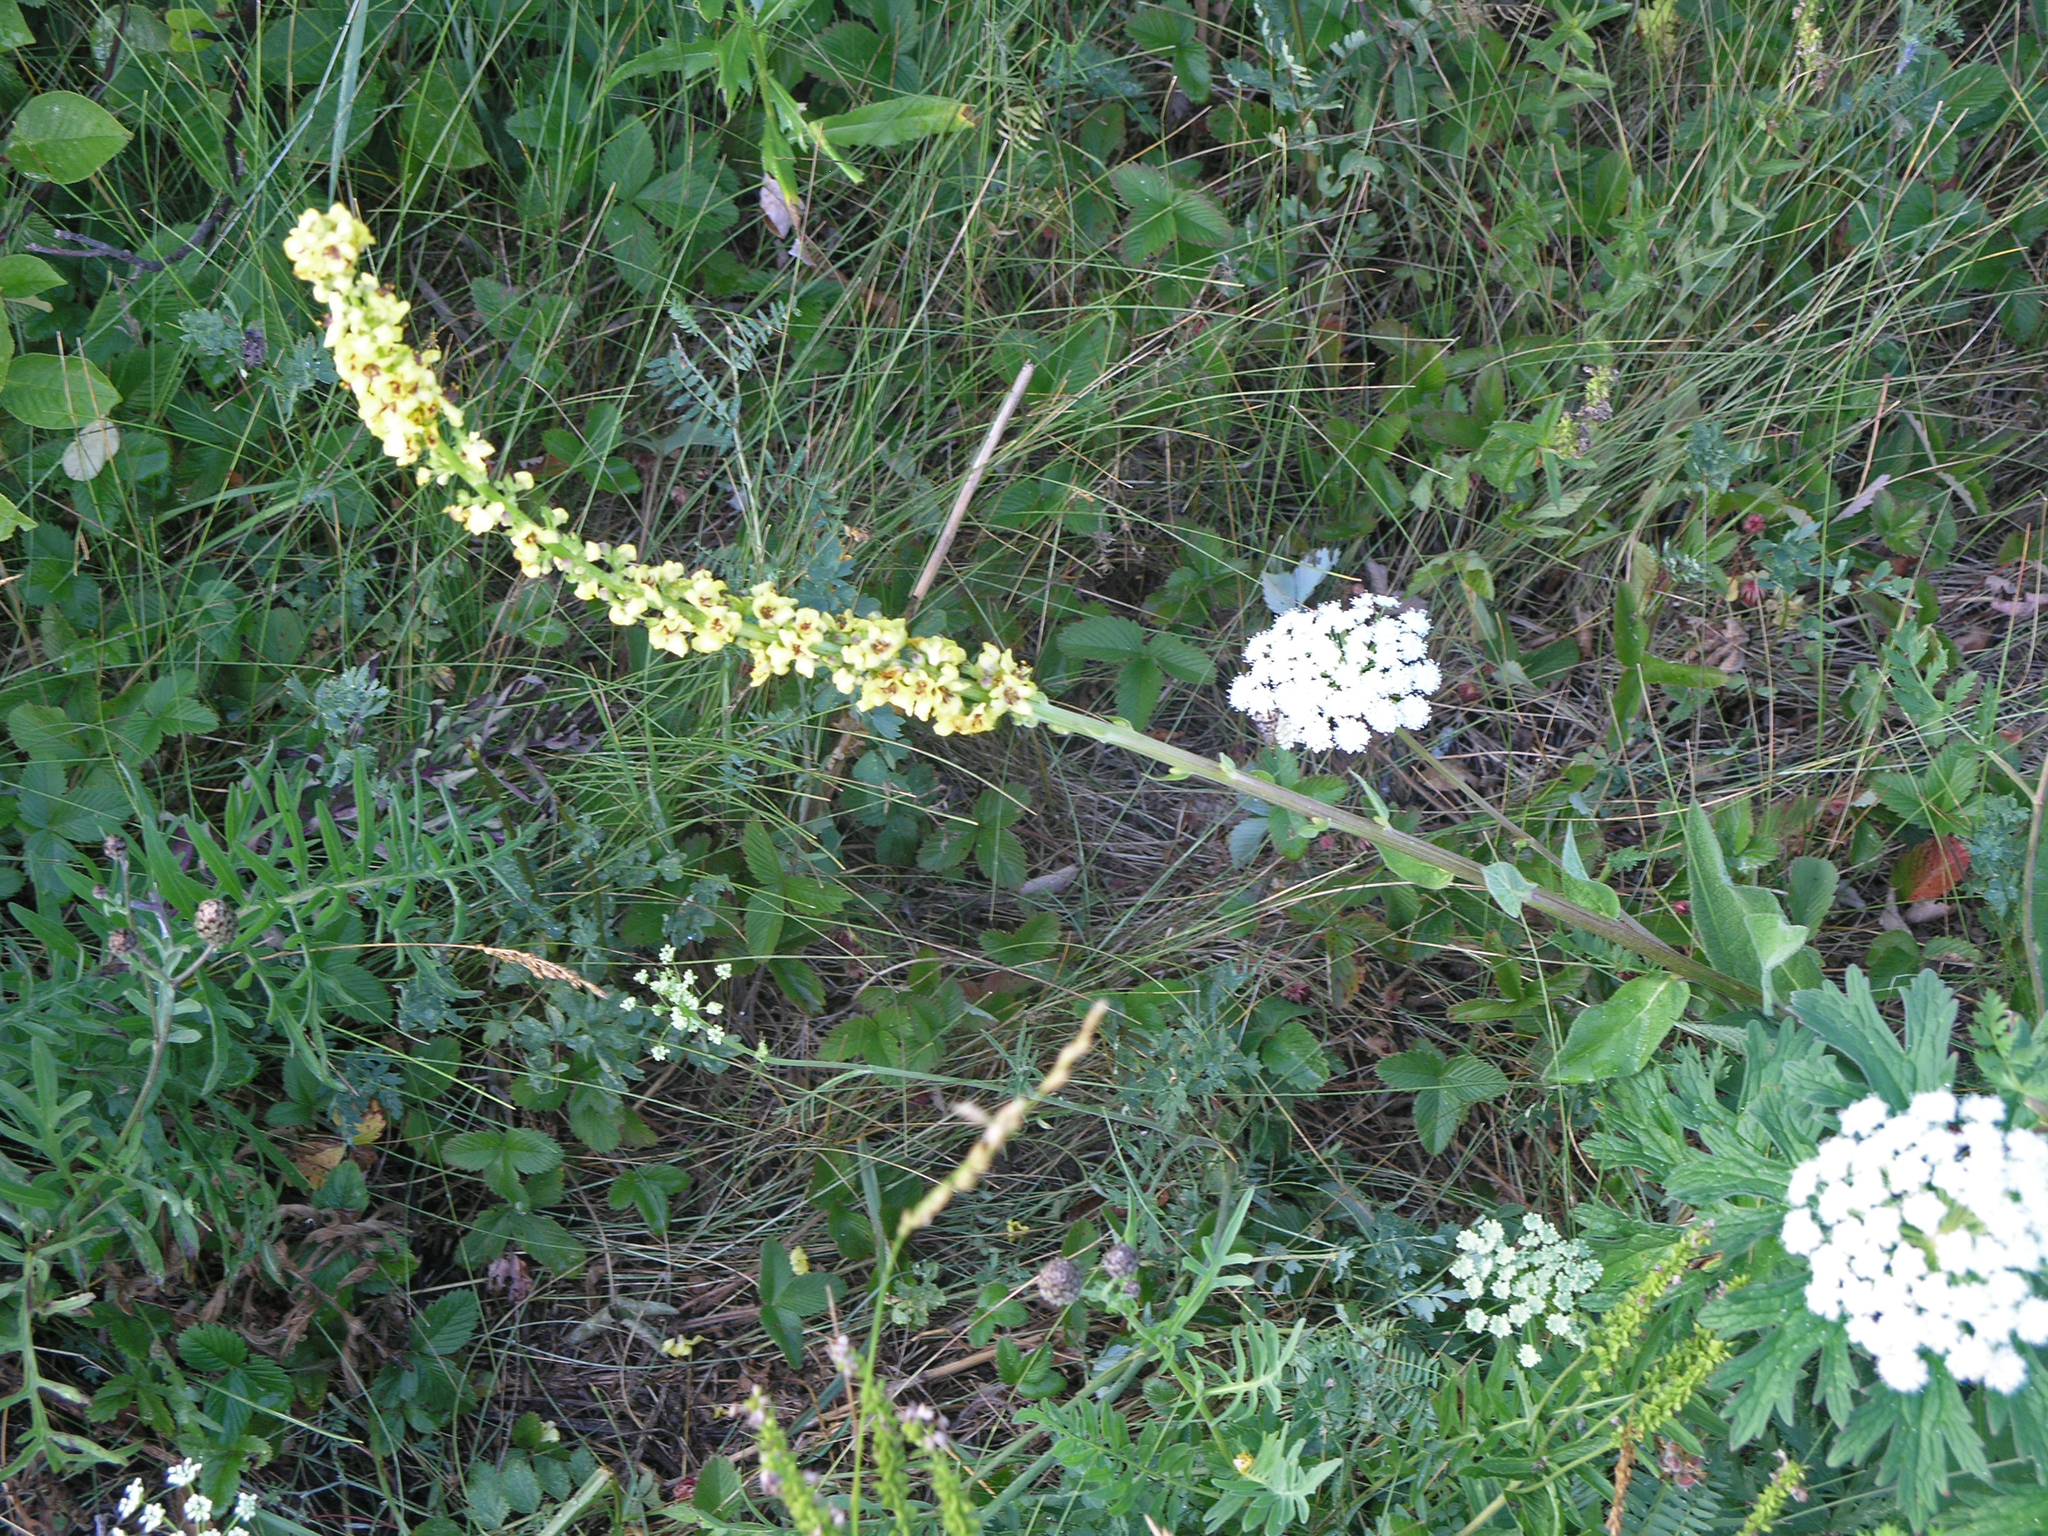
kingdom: Plantae
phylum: Tracheophyta
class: Magnoliopsida
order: Lamiales
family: Scrophulariaceae
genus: Verbascum
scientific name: Verbascum nigrum
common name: Dark mullein
